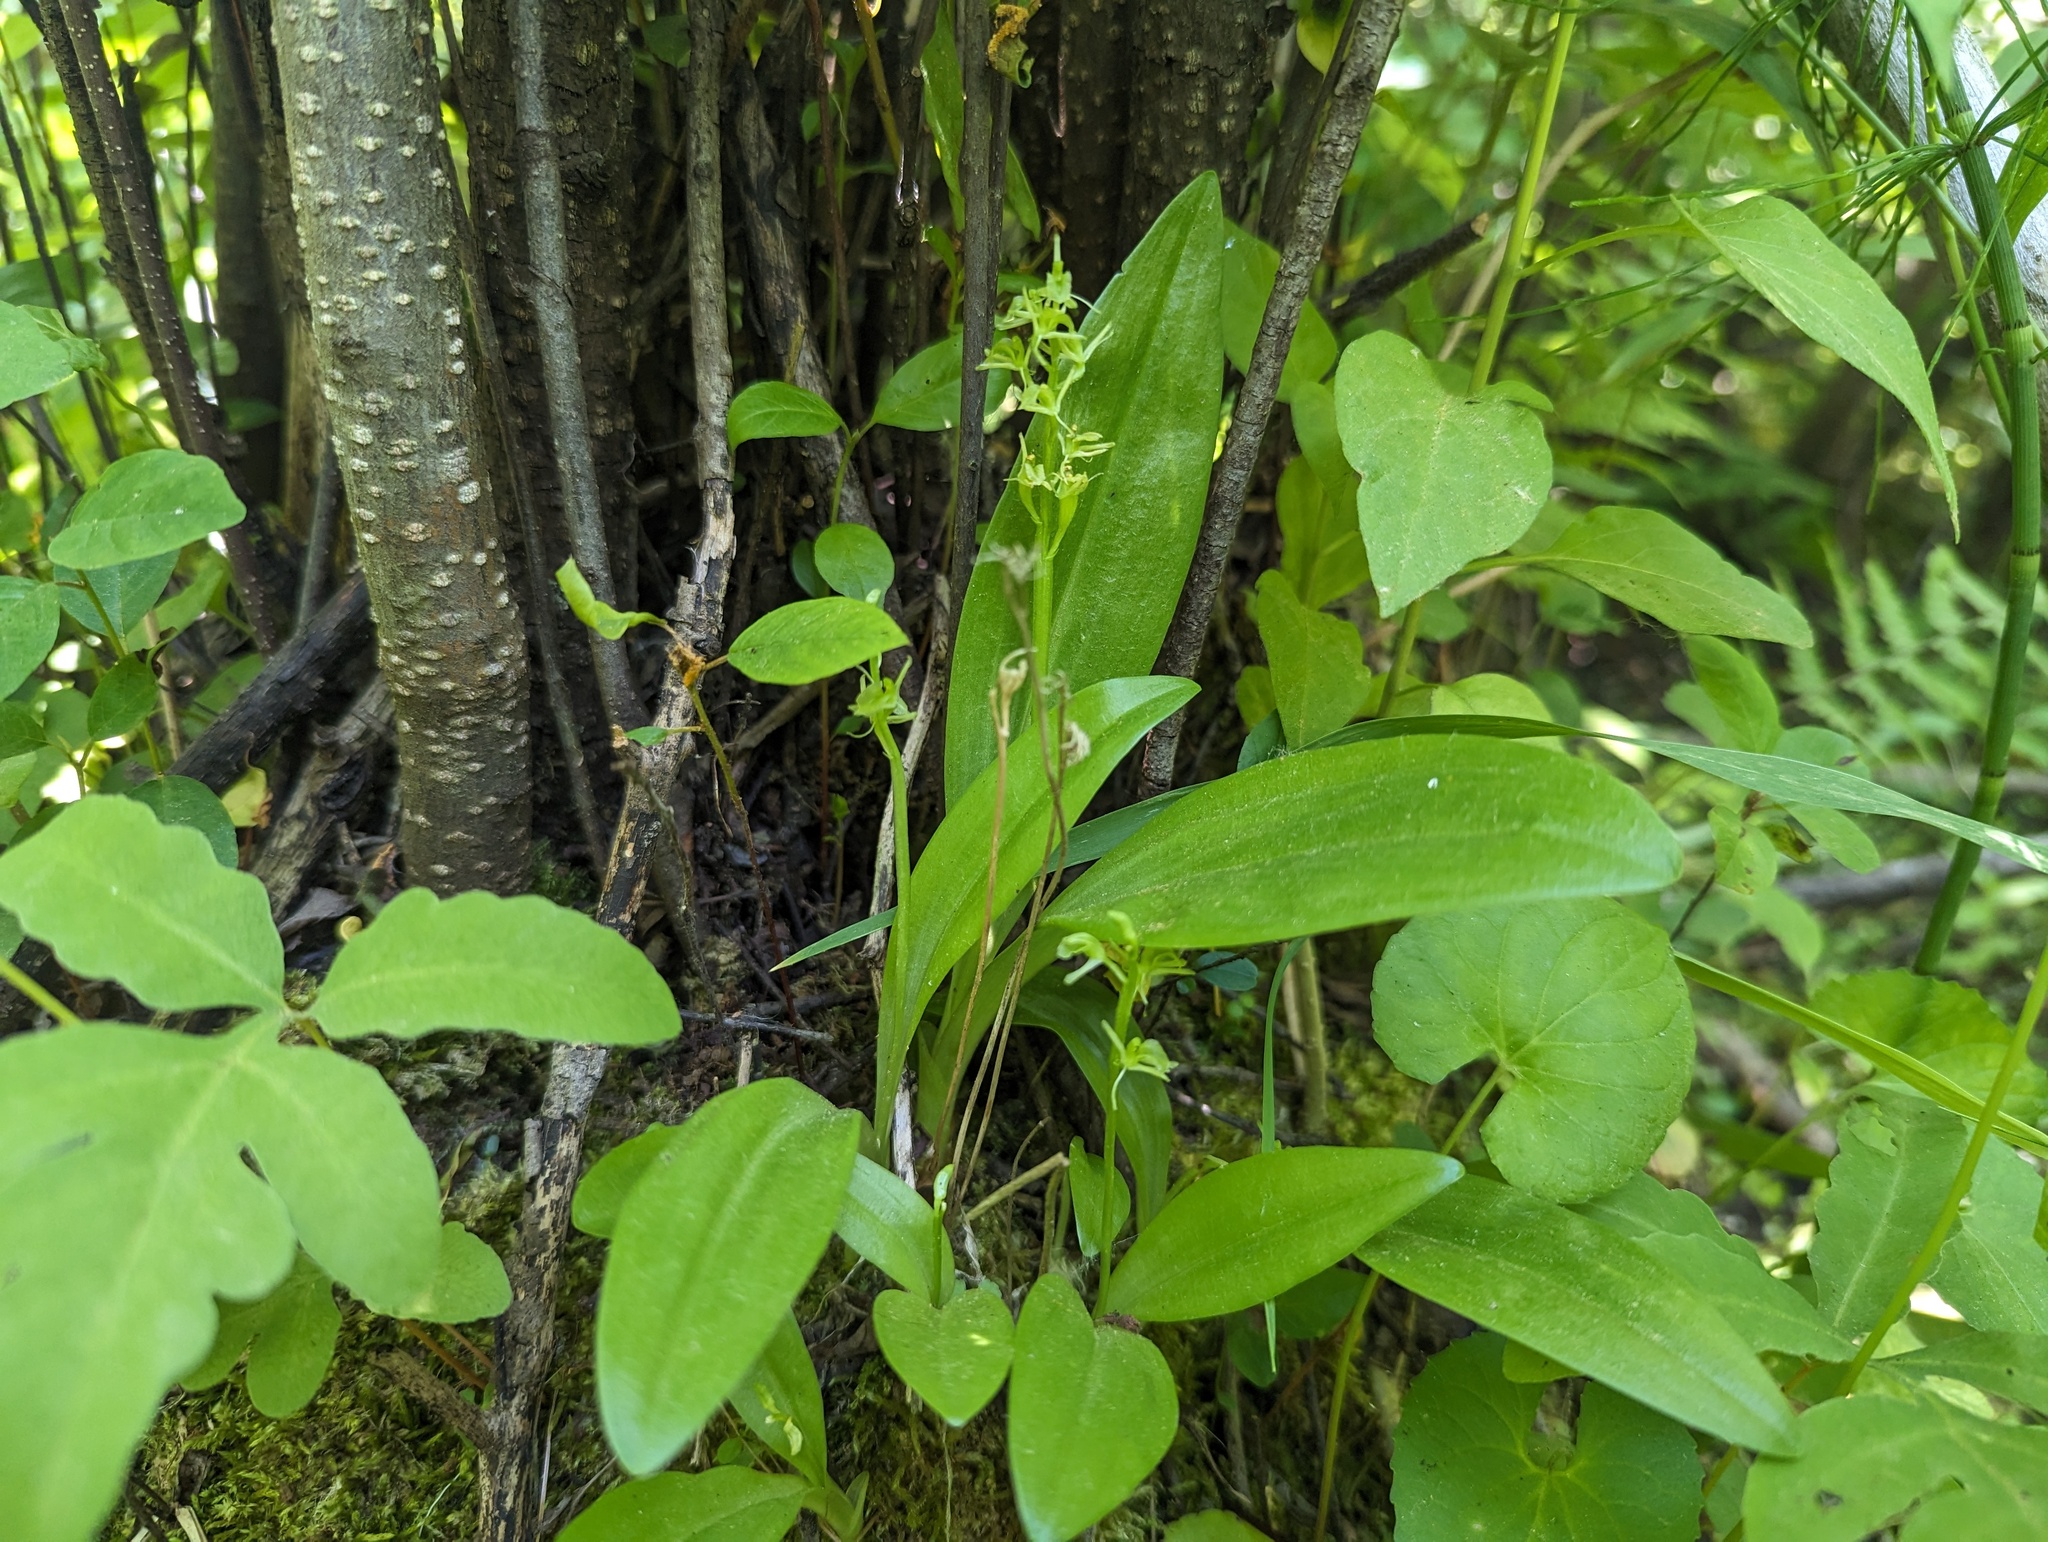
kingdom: Animalia
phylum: Arthropoda
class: Insecta
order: Coleoptera
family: Curculionidae
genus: Liparis
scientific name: Liparis loeselii
